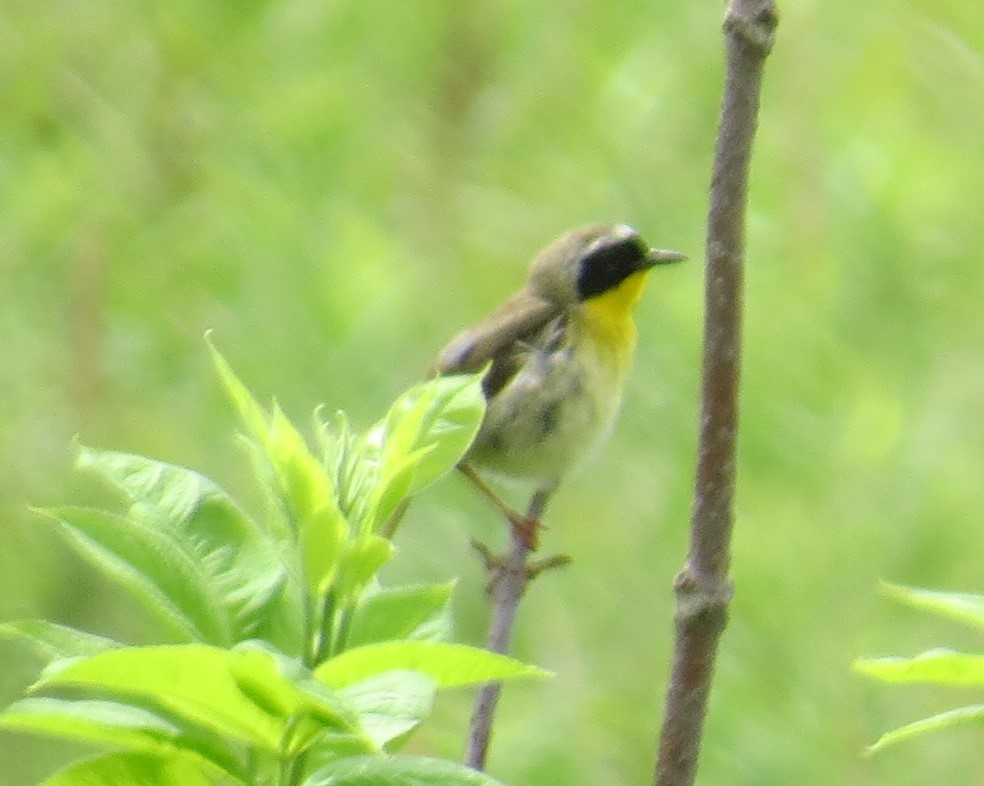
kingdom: Animalia
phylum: Chordata
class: Aves
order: Passeriformes
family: Parulidae
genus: Geothlypis
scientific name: Geothlypis trichas
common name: Common yellowthroat
